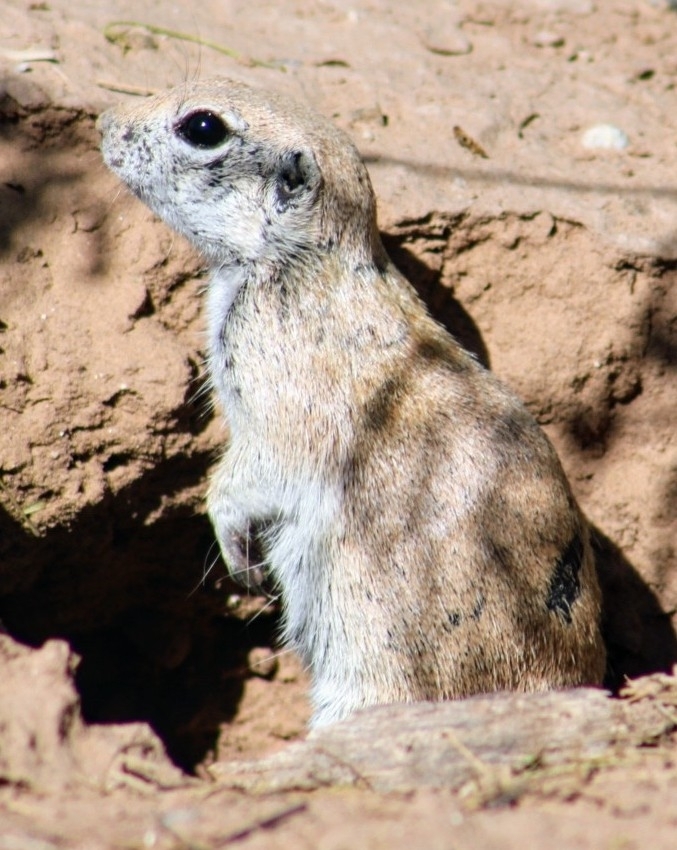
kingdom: Animalia
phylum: Chordata
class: Mammalia
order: Rodentia
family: Sciuridae
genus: Xerospermophilus
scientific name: Xerospermophilus tereticaudus
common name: Round-tailed ground squirrel
